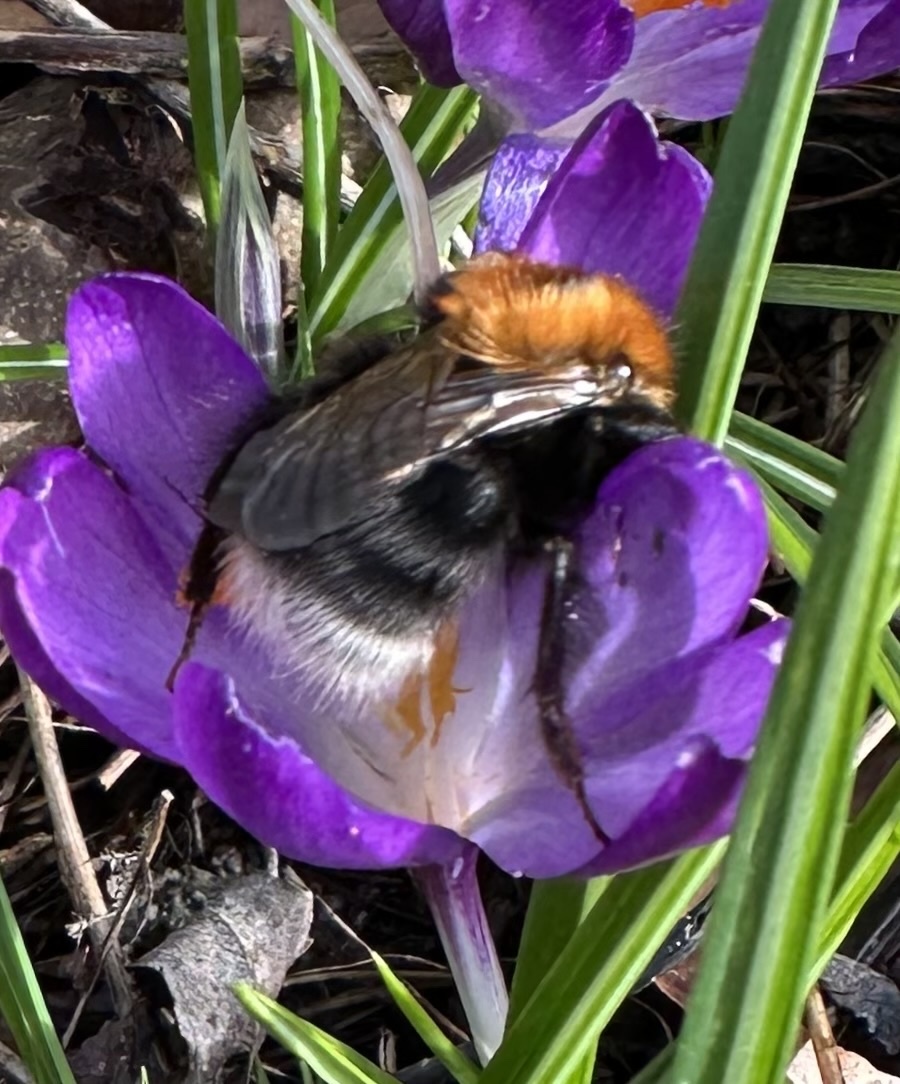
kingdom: Animalia
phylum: Arthropoda
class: Insecta
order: Hymenoptera
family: Apidae
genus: Bombus
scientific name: Bombus hypnorum
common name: New garden bumblebee
